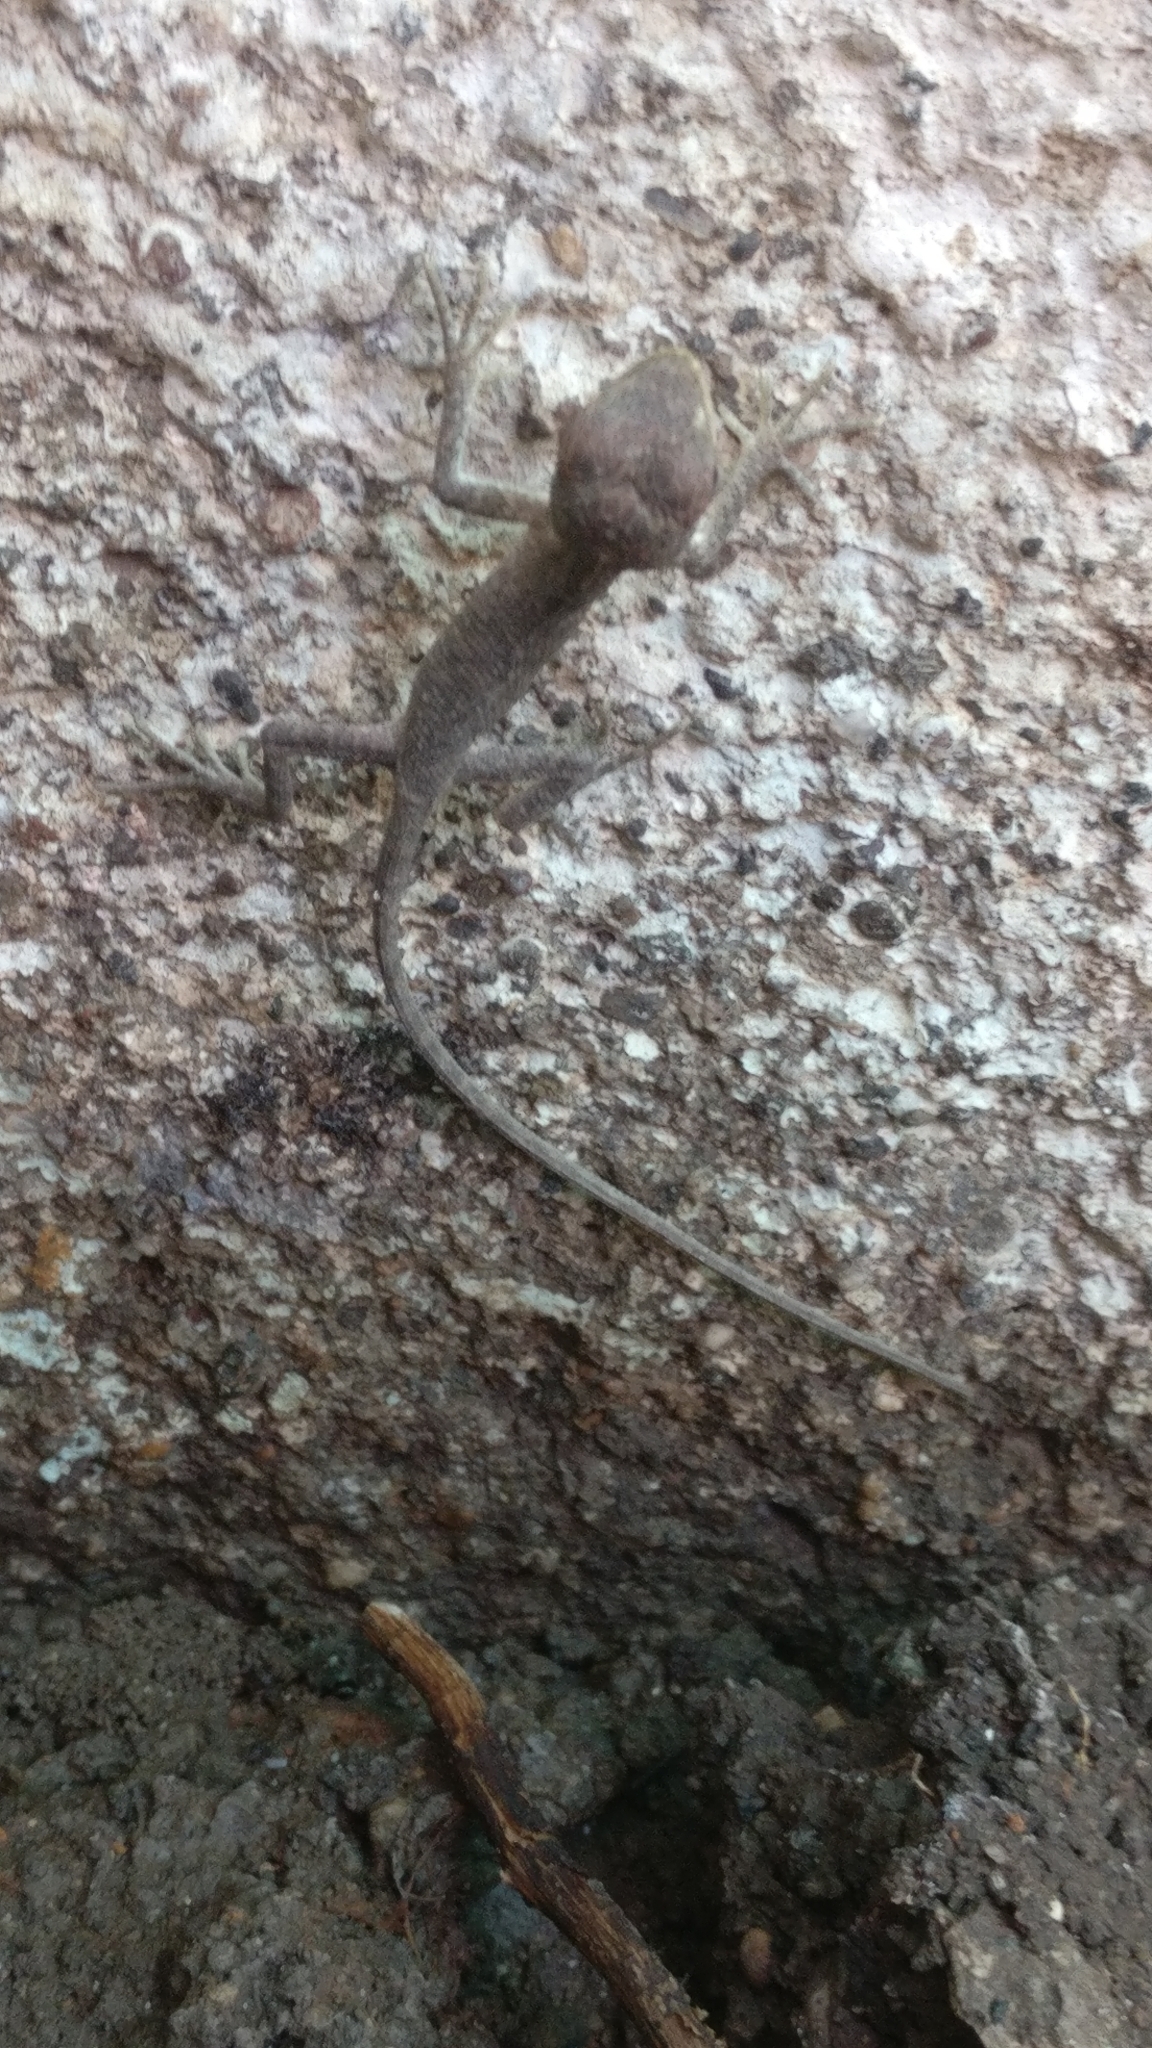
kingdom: Animalia
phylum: Chordata
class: Squamata
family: Agamidae
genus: Calotes
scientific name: Calotes versicolor
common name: Oriental garden lizard
